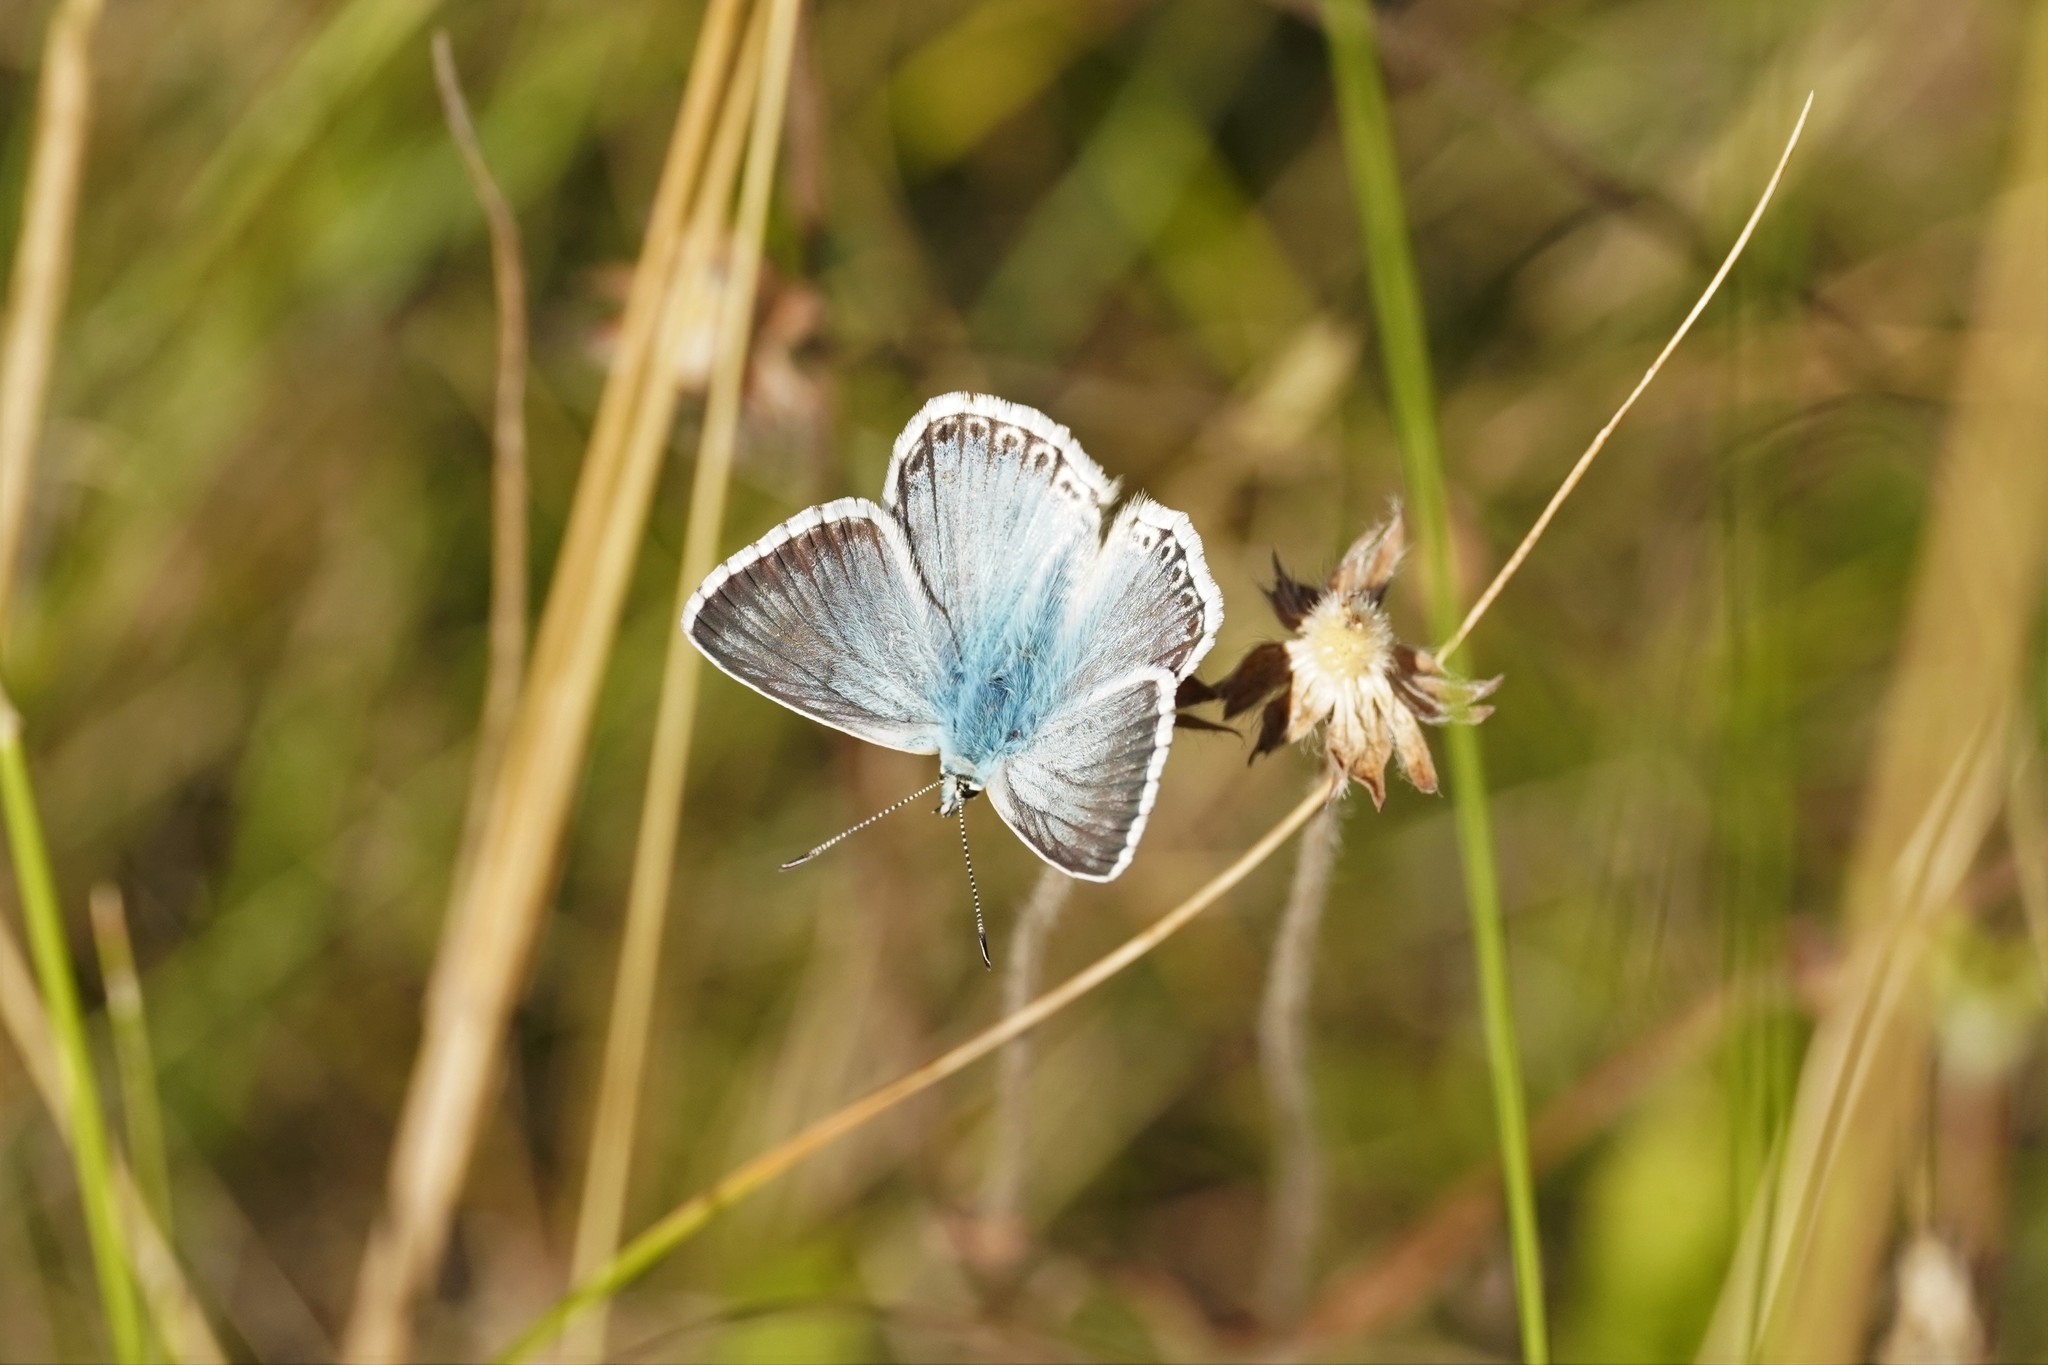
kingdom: Animalia
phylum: Arthropoda
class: Insecta
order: Lepidoptera
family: Lycaenidae
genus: Lysandra
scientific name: Lysandra coridon
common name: Chalkhill blue
